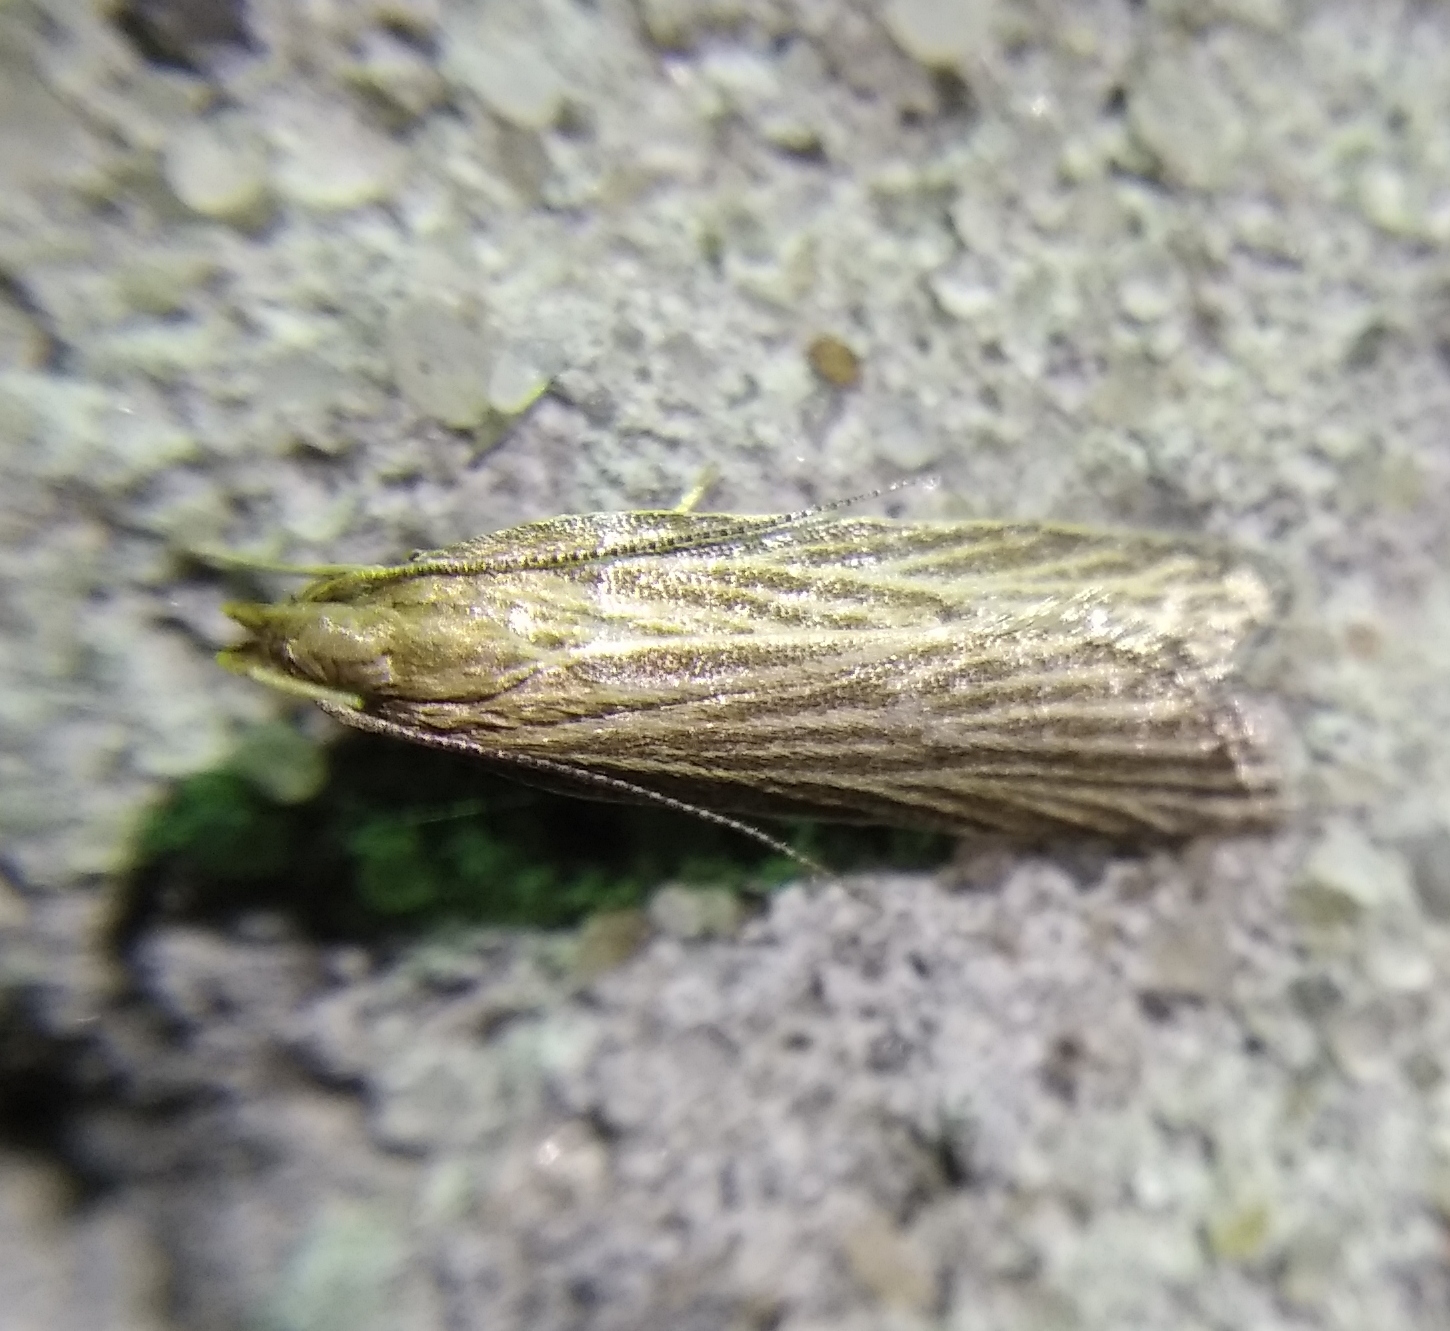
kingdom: Animalia
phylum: Arthropoda
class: Insecta
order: Lepidoptera
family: Gelechiidae
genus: Helcystogramma
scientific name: Helcystogramma albinervis
